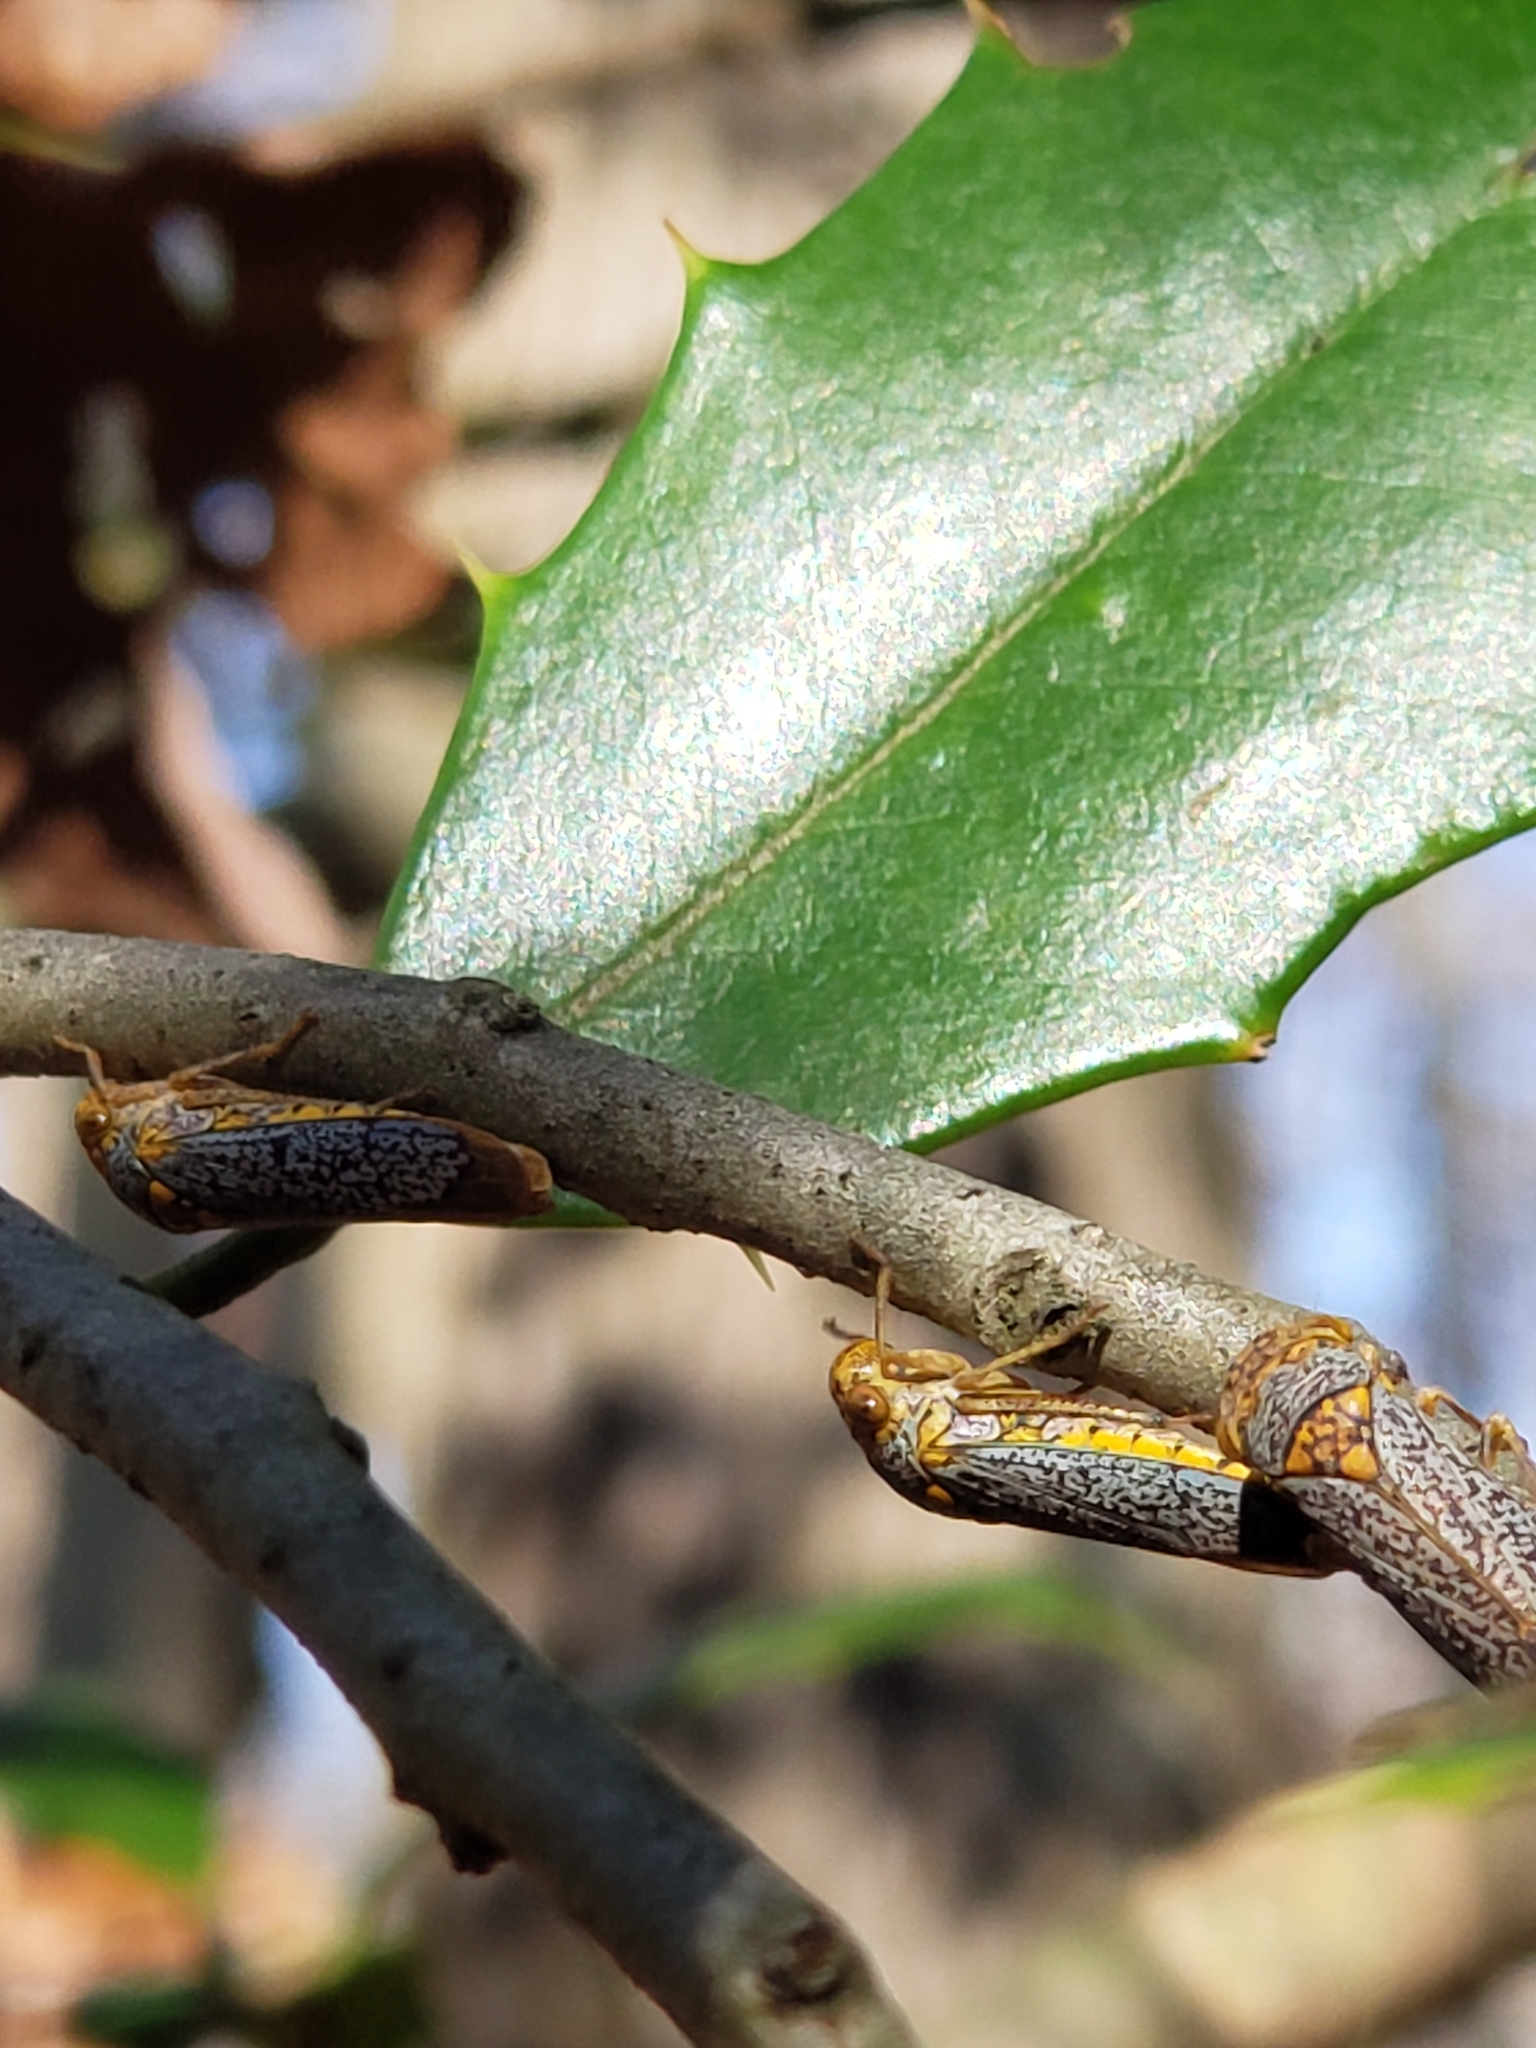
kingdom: Animalia
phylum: Arthropoda
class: Insecta
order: Hemiptera
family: Cicadellidae
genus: Oncometopia
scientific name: Oncometopia orbona
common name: Broad-headed sharpshooter
